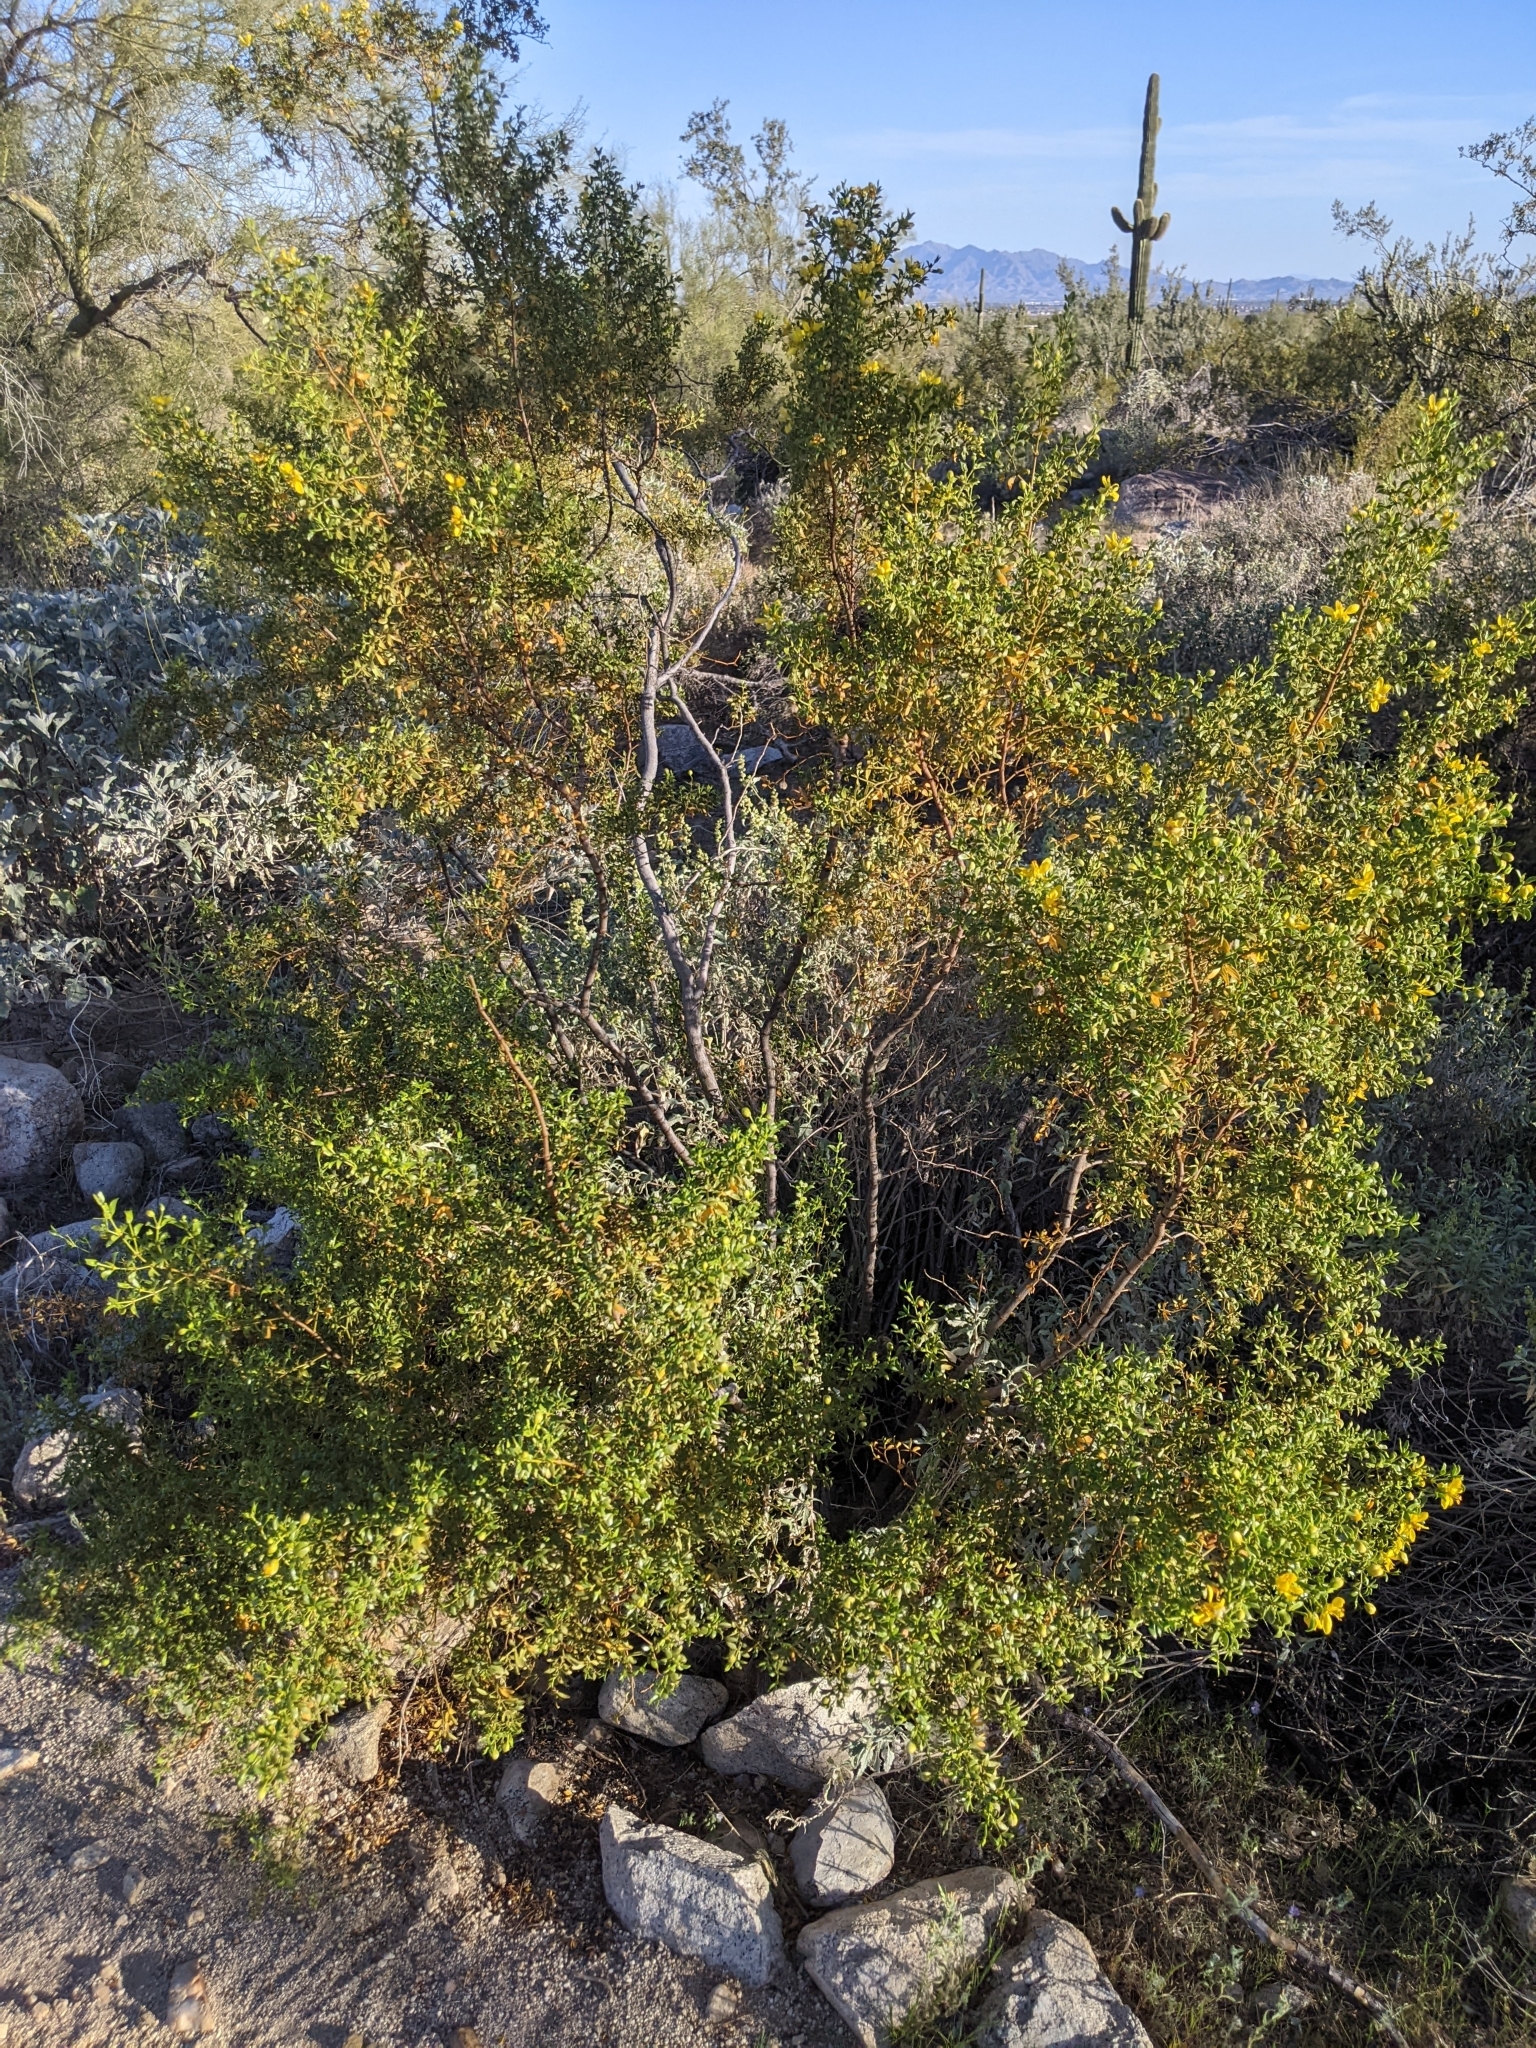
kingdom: Plantae
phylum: Tracheophyta
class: Magnoliopsida
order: Zygophyllales
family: Zygophyllaceae
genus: Larrea
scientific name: Larrea tridentata
